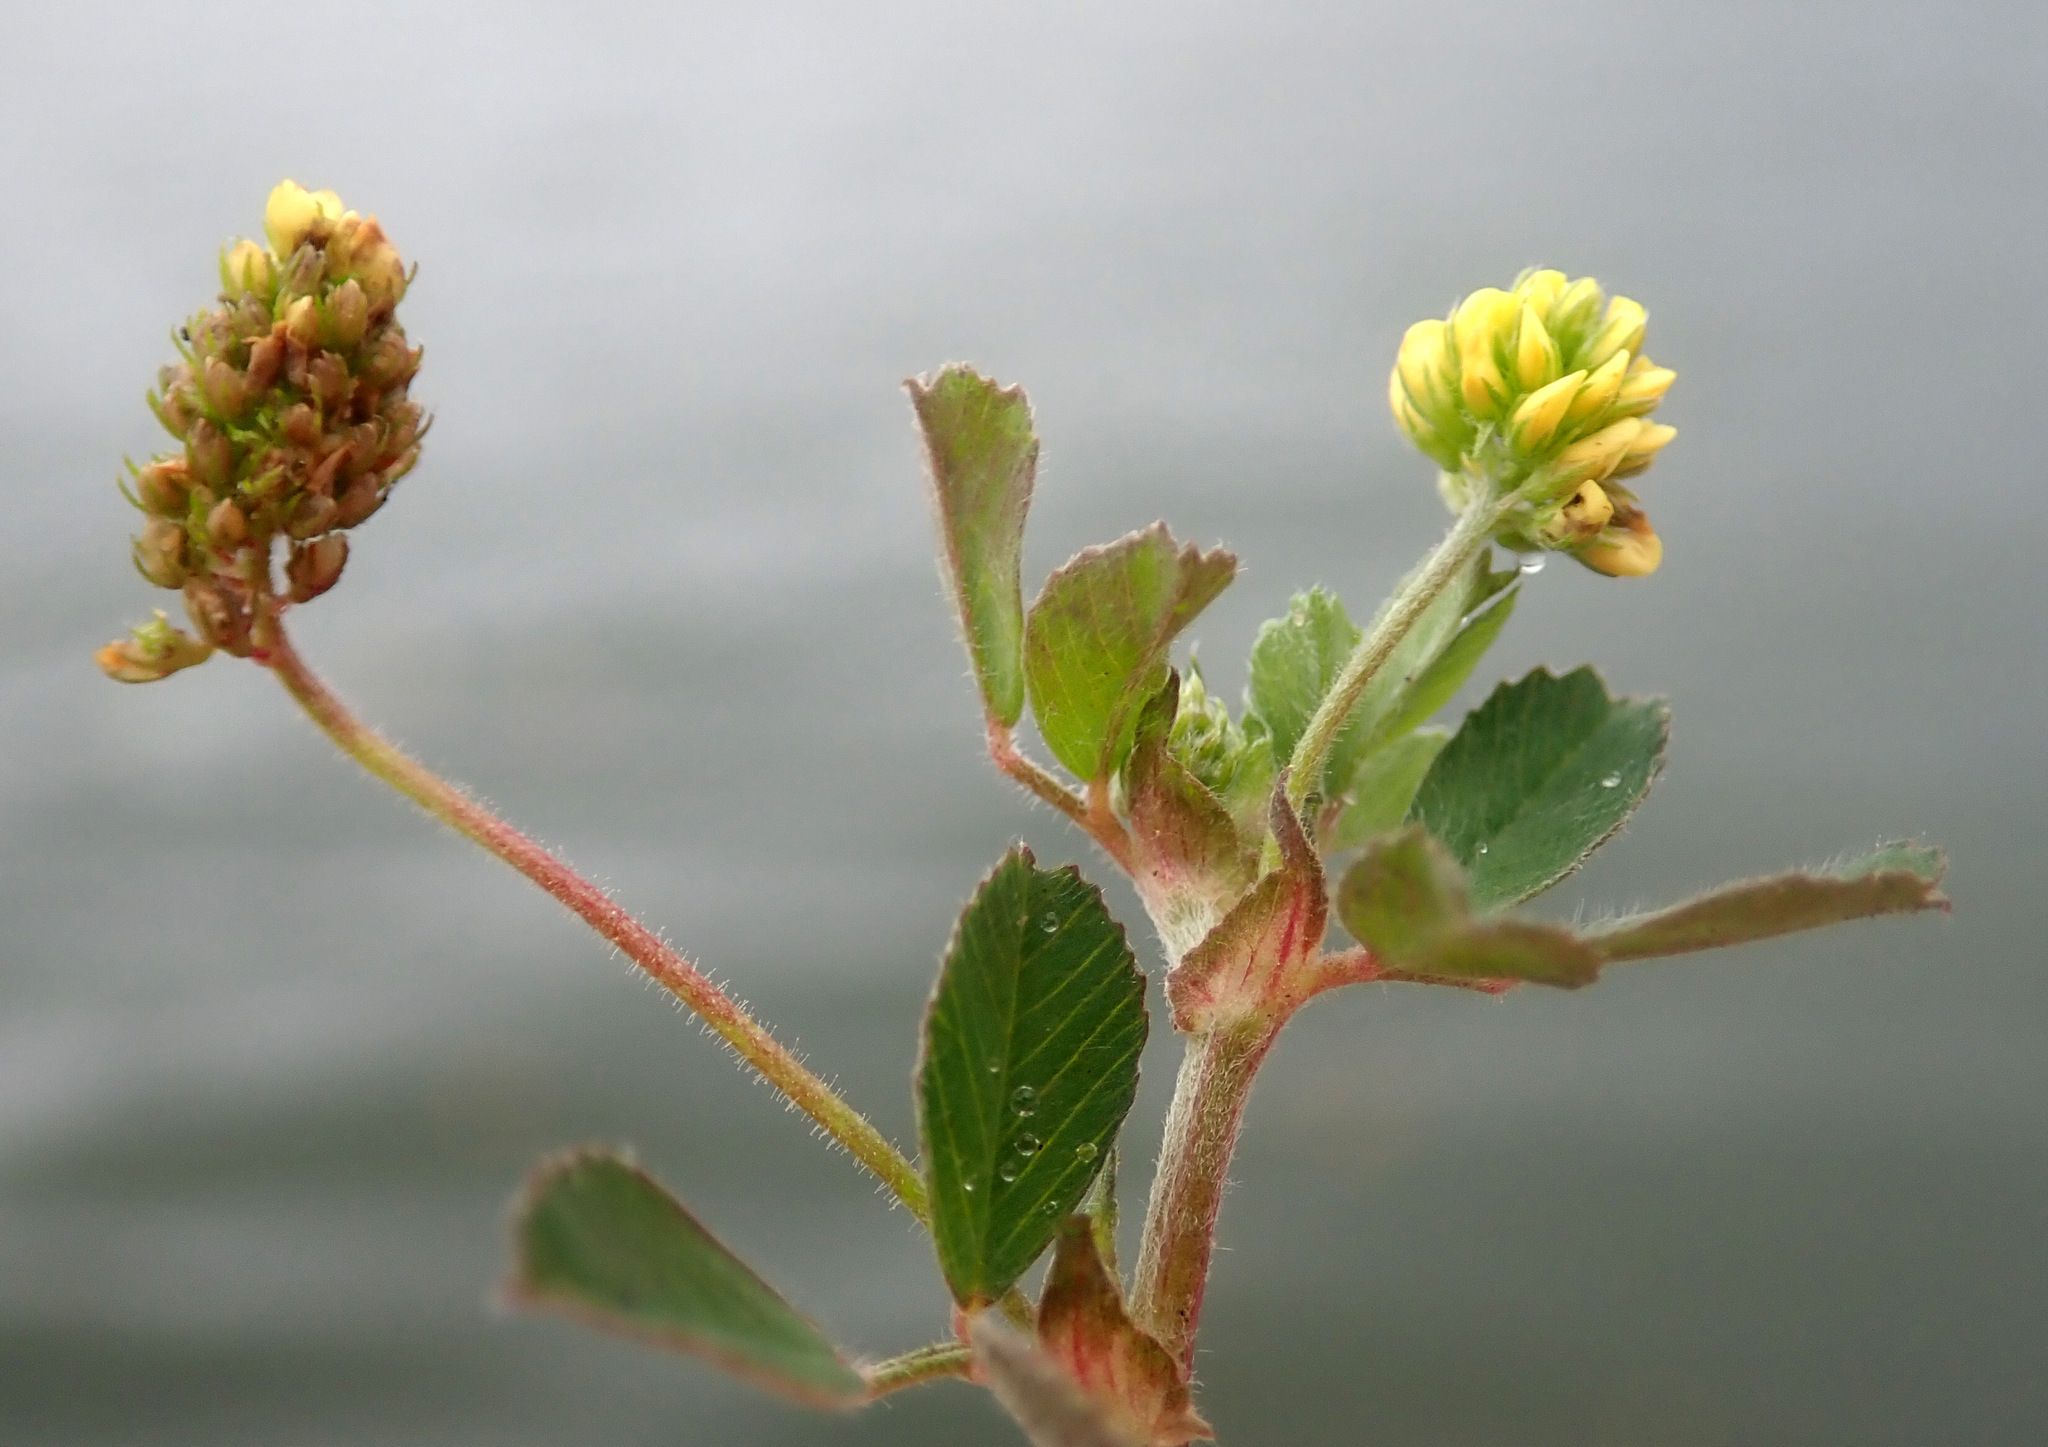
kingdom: Plantae
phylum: Tracheophyta
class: Magnoliopsida
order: Fabales
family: Fabaceae
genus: Medicago
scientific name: Medicago lupulina
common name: Black medick
